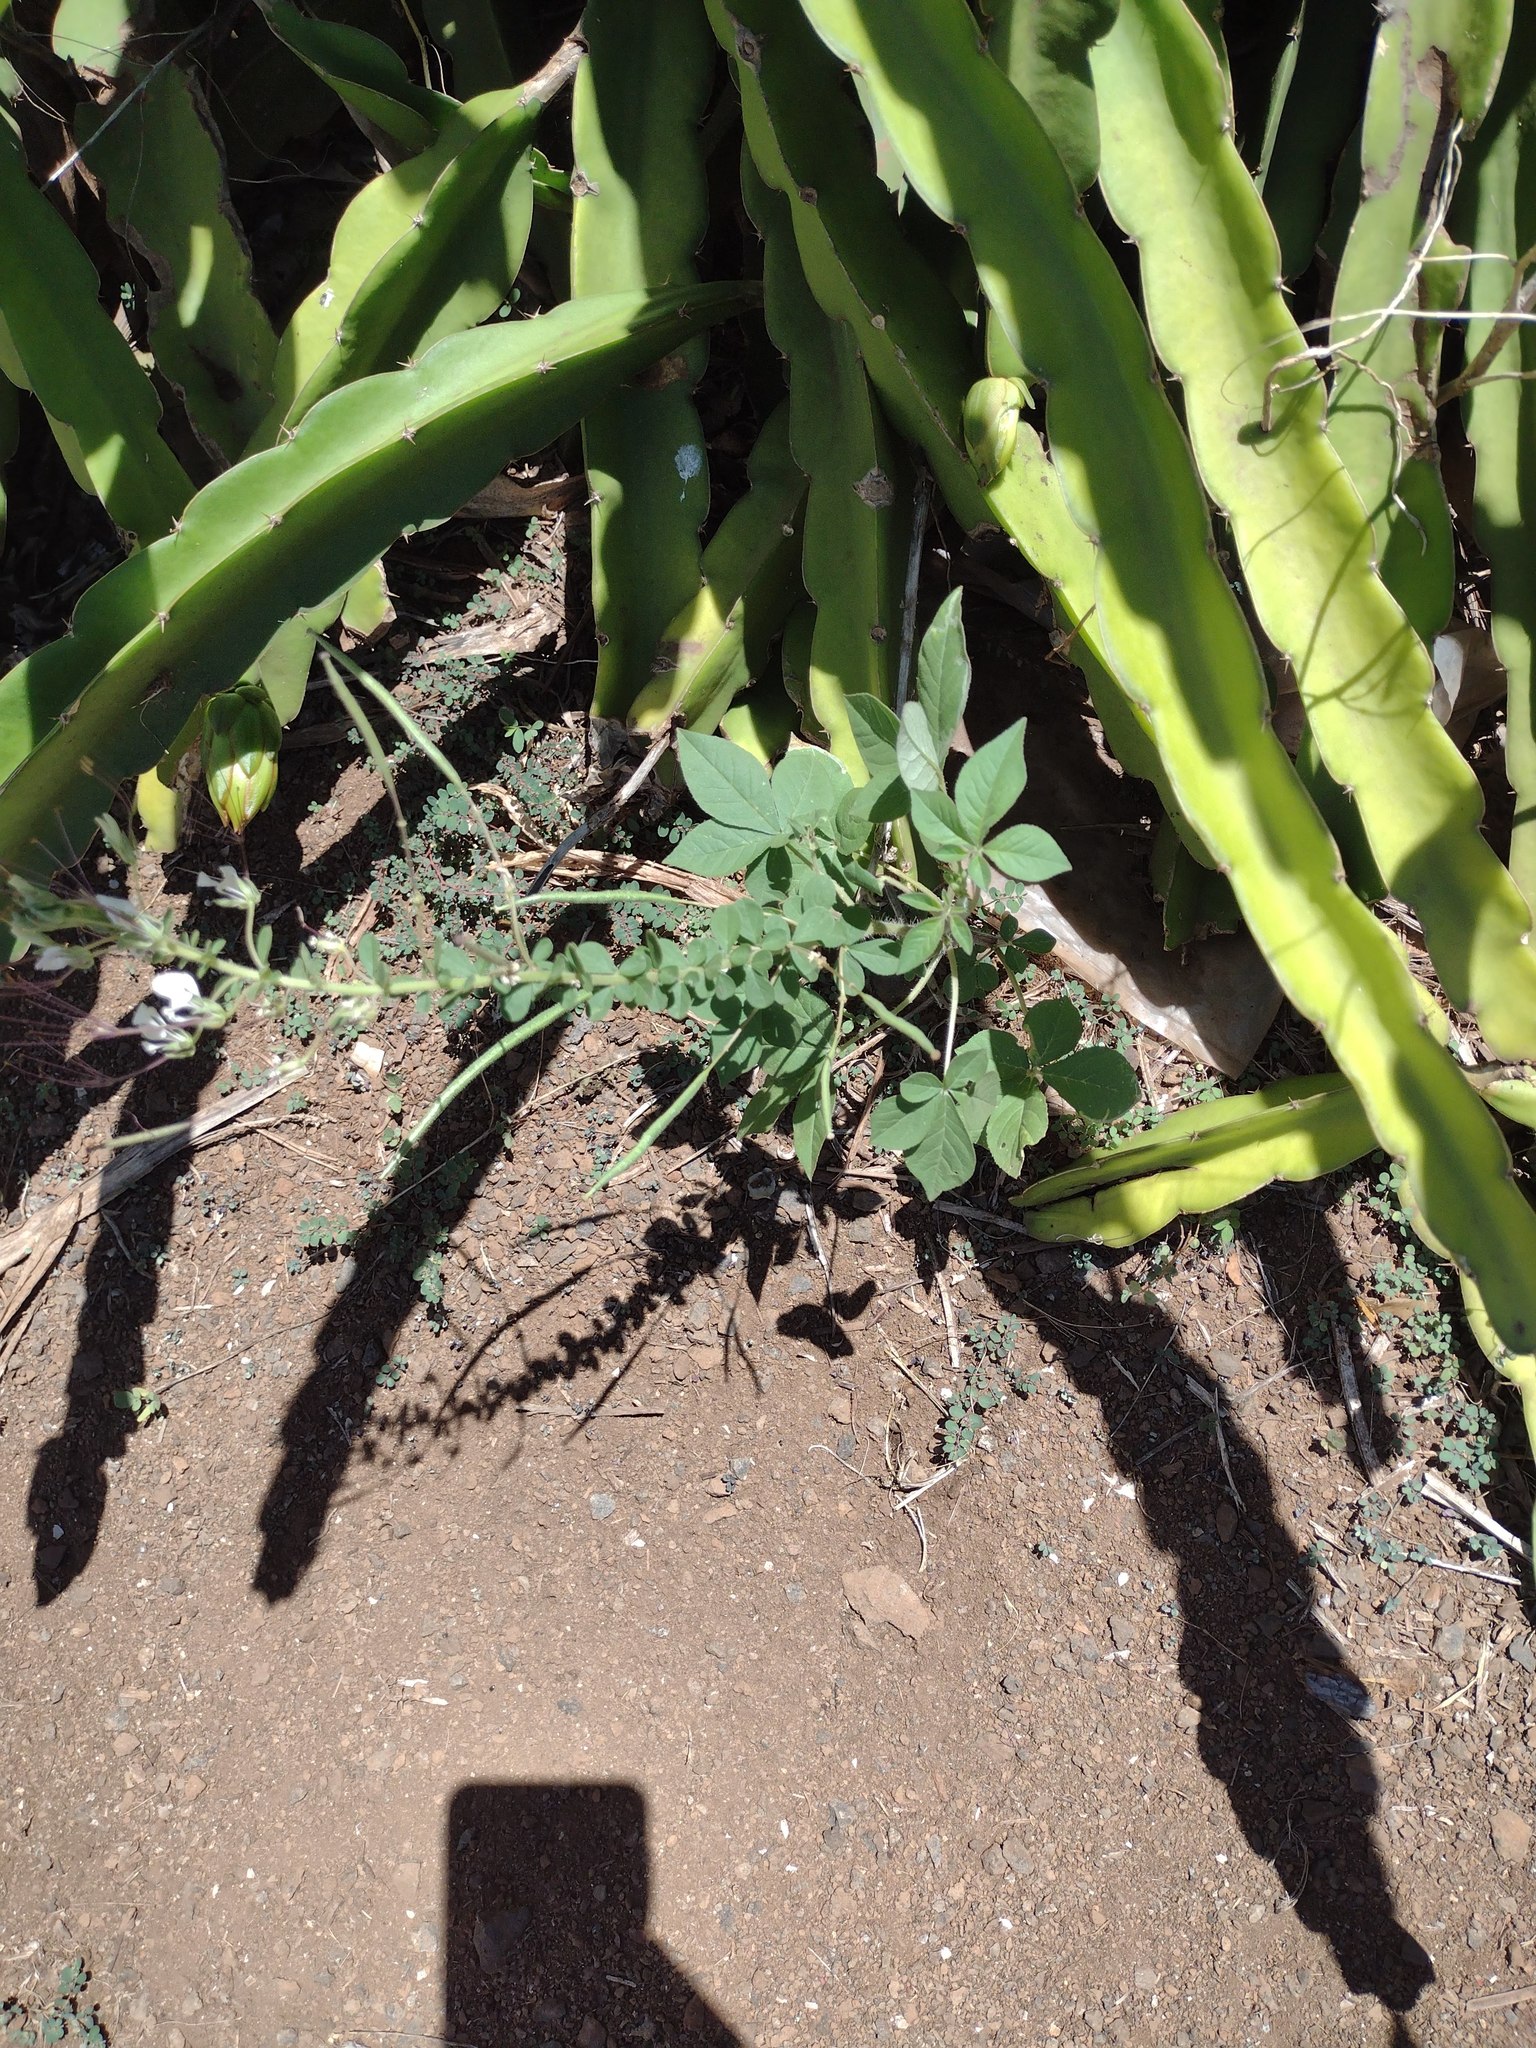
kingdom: Plantae
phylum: Tracheophyta
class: Magnoliopsida
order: Brassicales
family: Cleomaceae
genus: Gynandropsis
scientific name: Gynandropsis gynandra
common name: Spiderwisp
